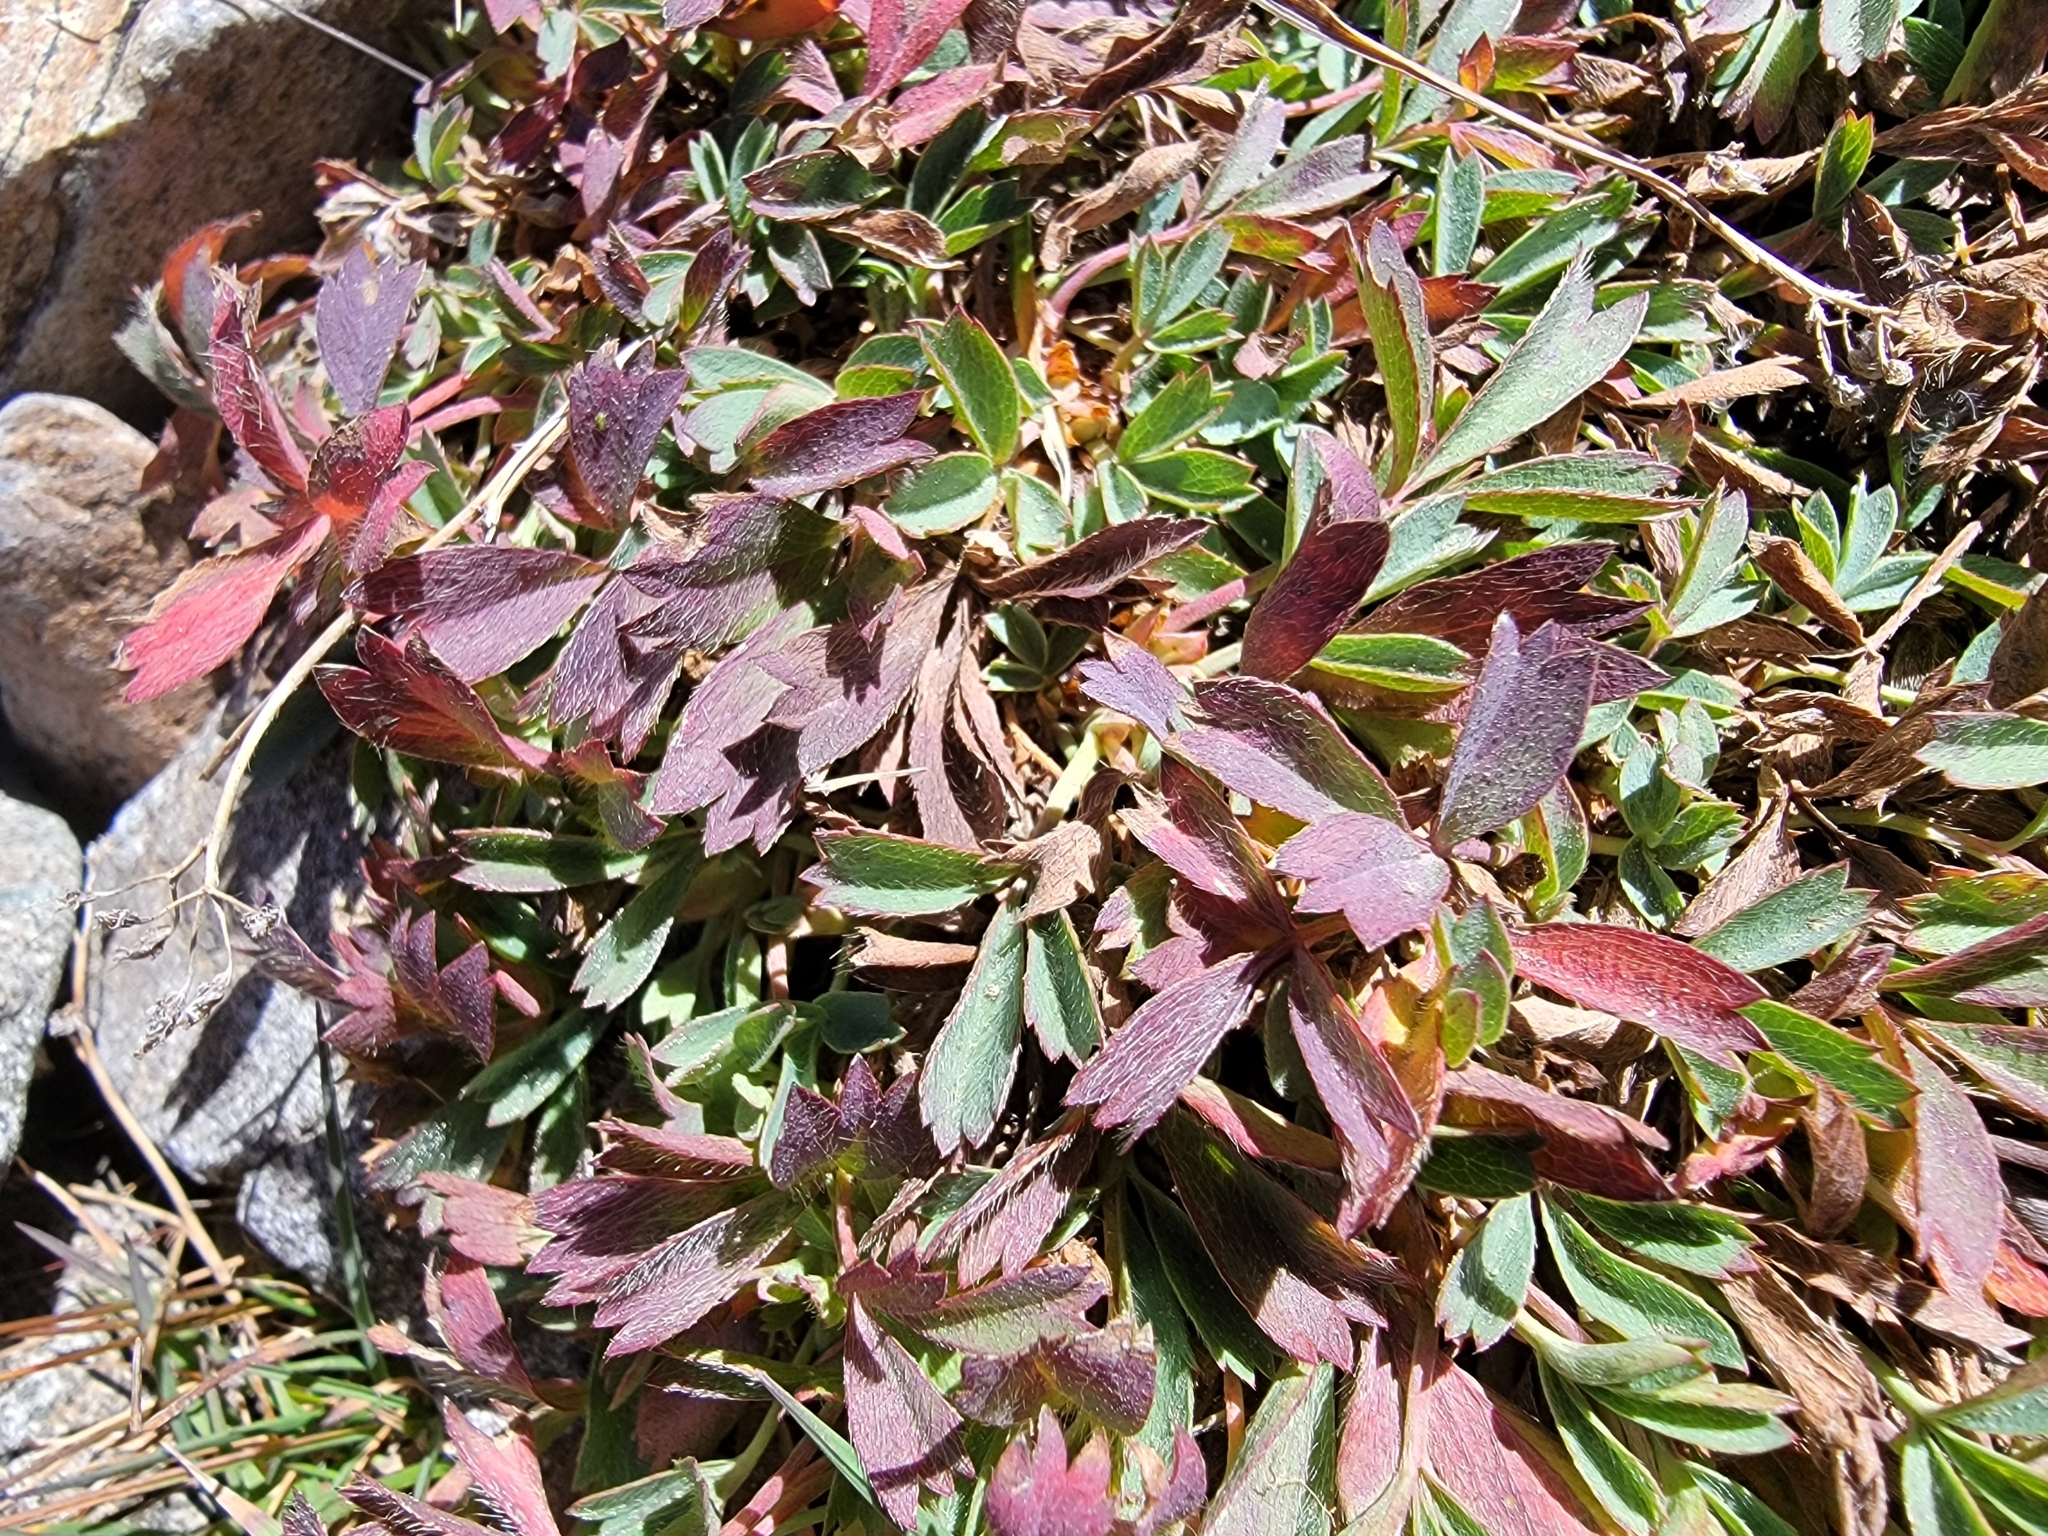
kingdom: Plantae
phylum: Tracheophyta
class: Magnoliopsida
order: Rosales
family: Rosaceae
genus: Sibbaldia
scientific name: Sibbaldia procumbens
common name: Creeping sibbaldia
